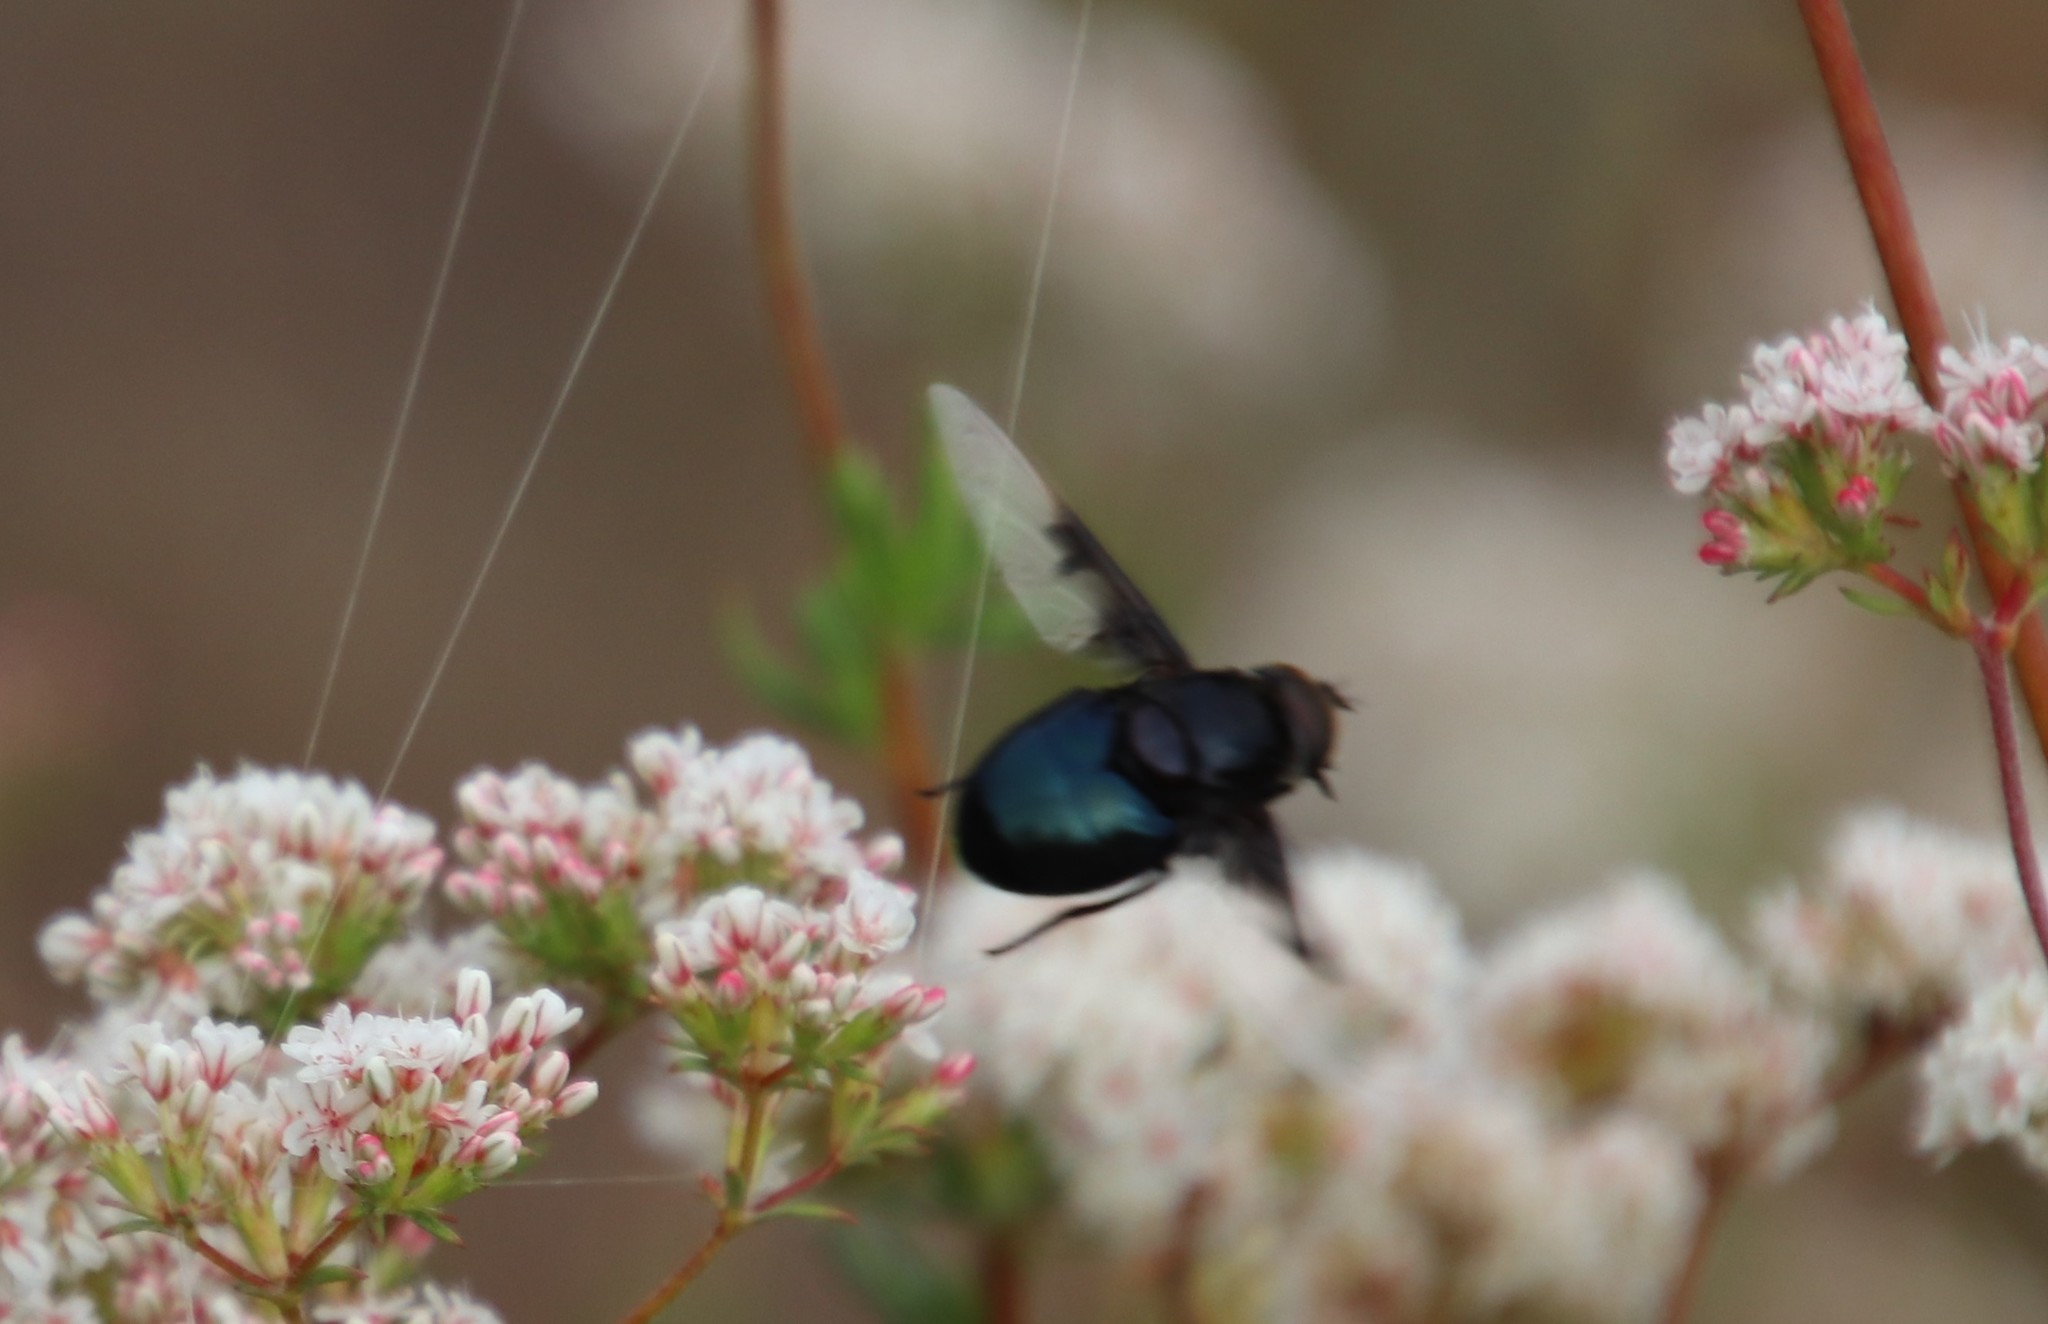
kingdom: Animalia
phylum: Arthropoda
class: Insecta
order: Diptera
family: Syrphidae
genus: Copestylum
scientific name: Copestylum mexicanum
